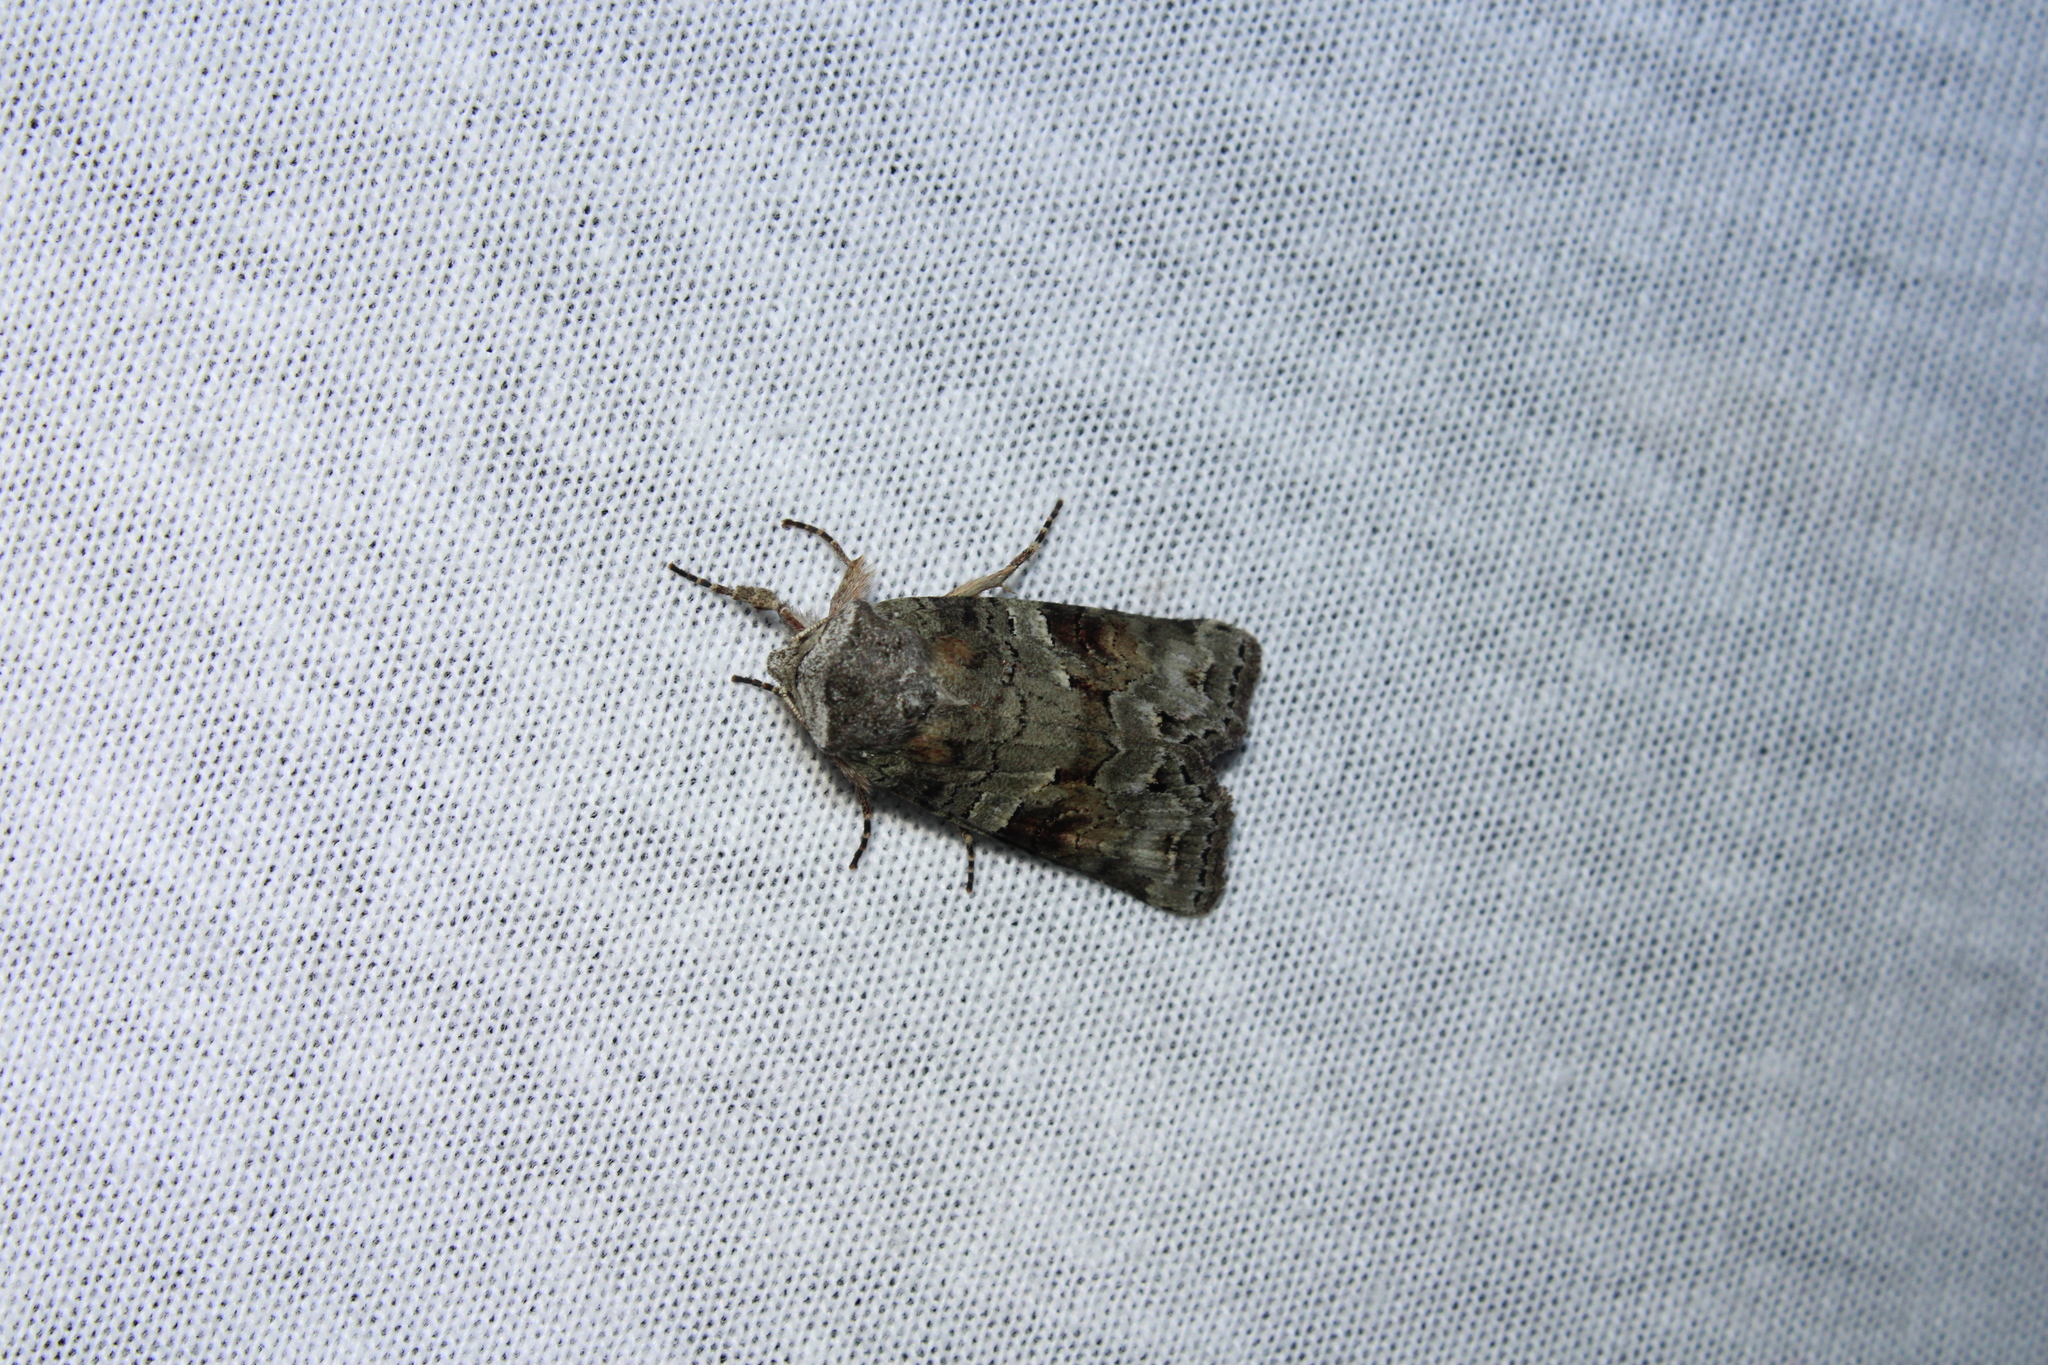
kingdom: Animalia
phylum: Arthropoda
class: Insecta
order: Lepidoptera
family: Noctuidae
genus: Egira
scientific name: Egira alternans
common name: Alternate woodling
